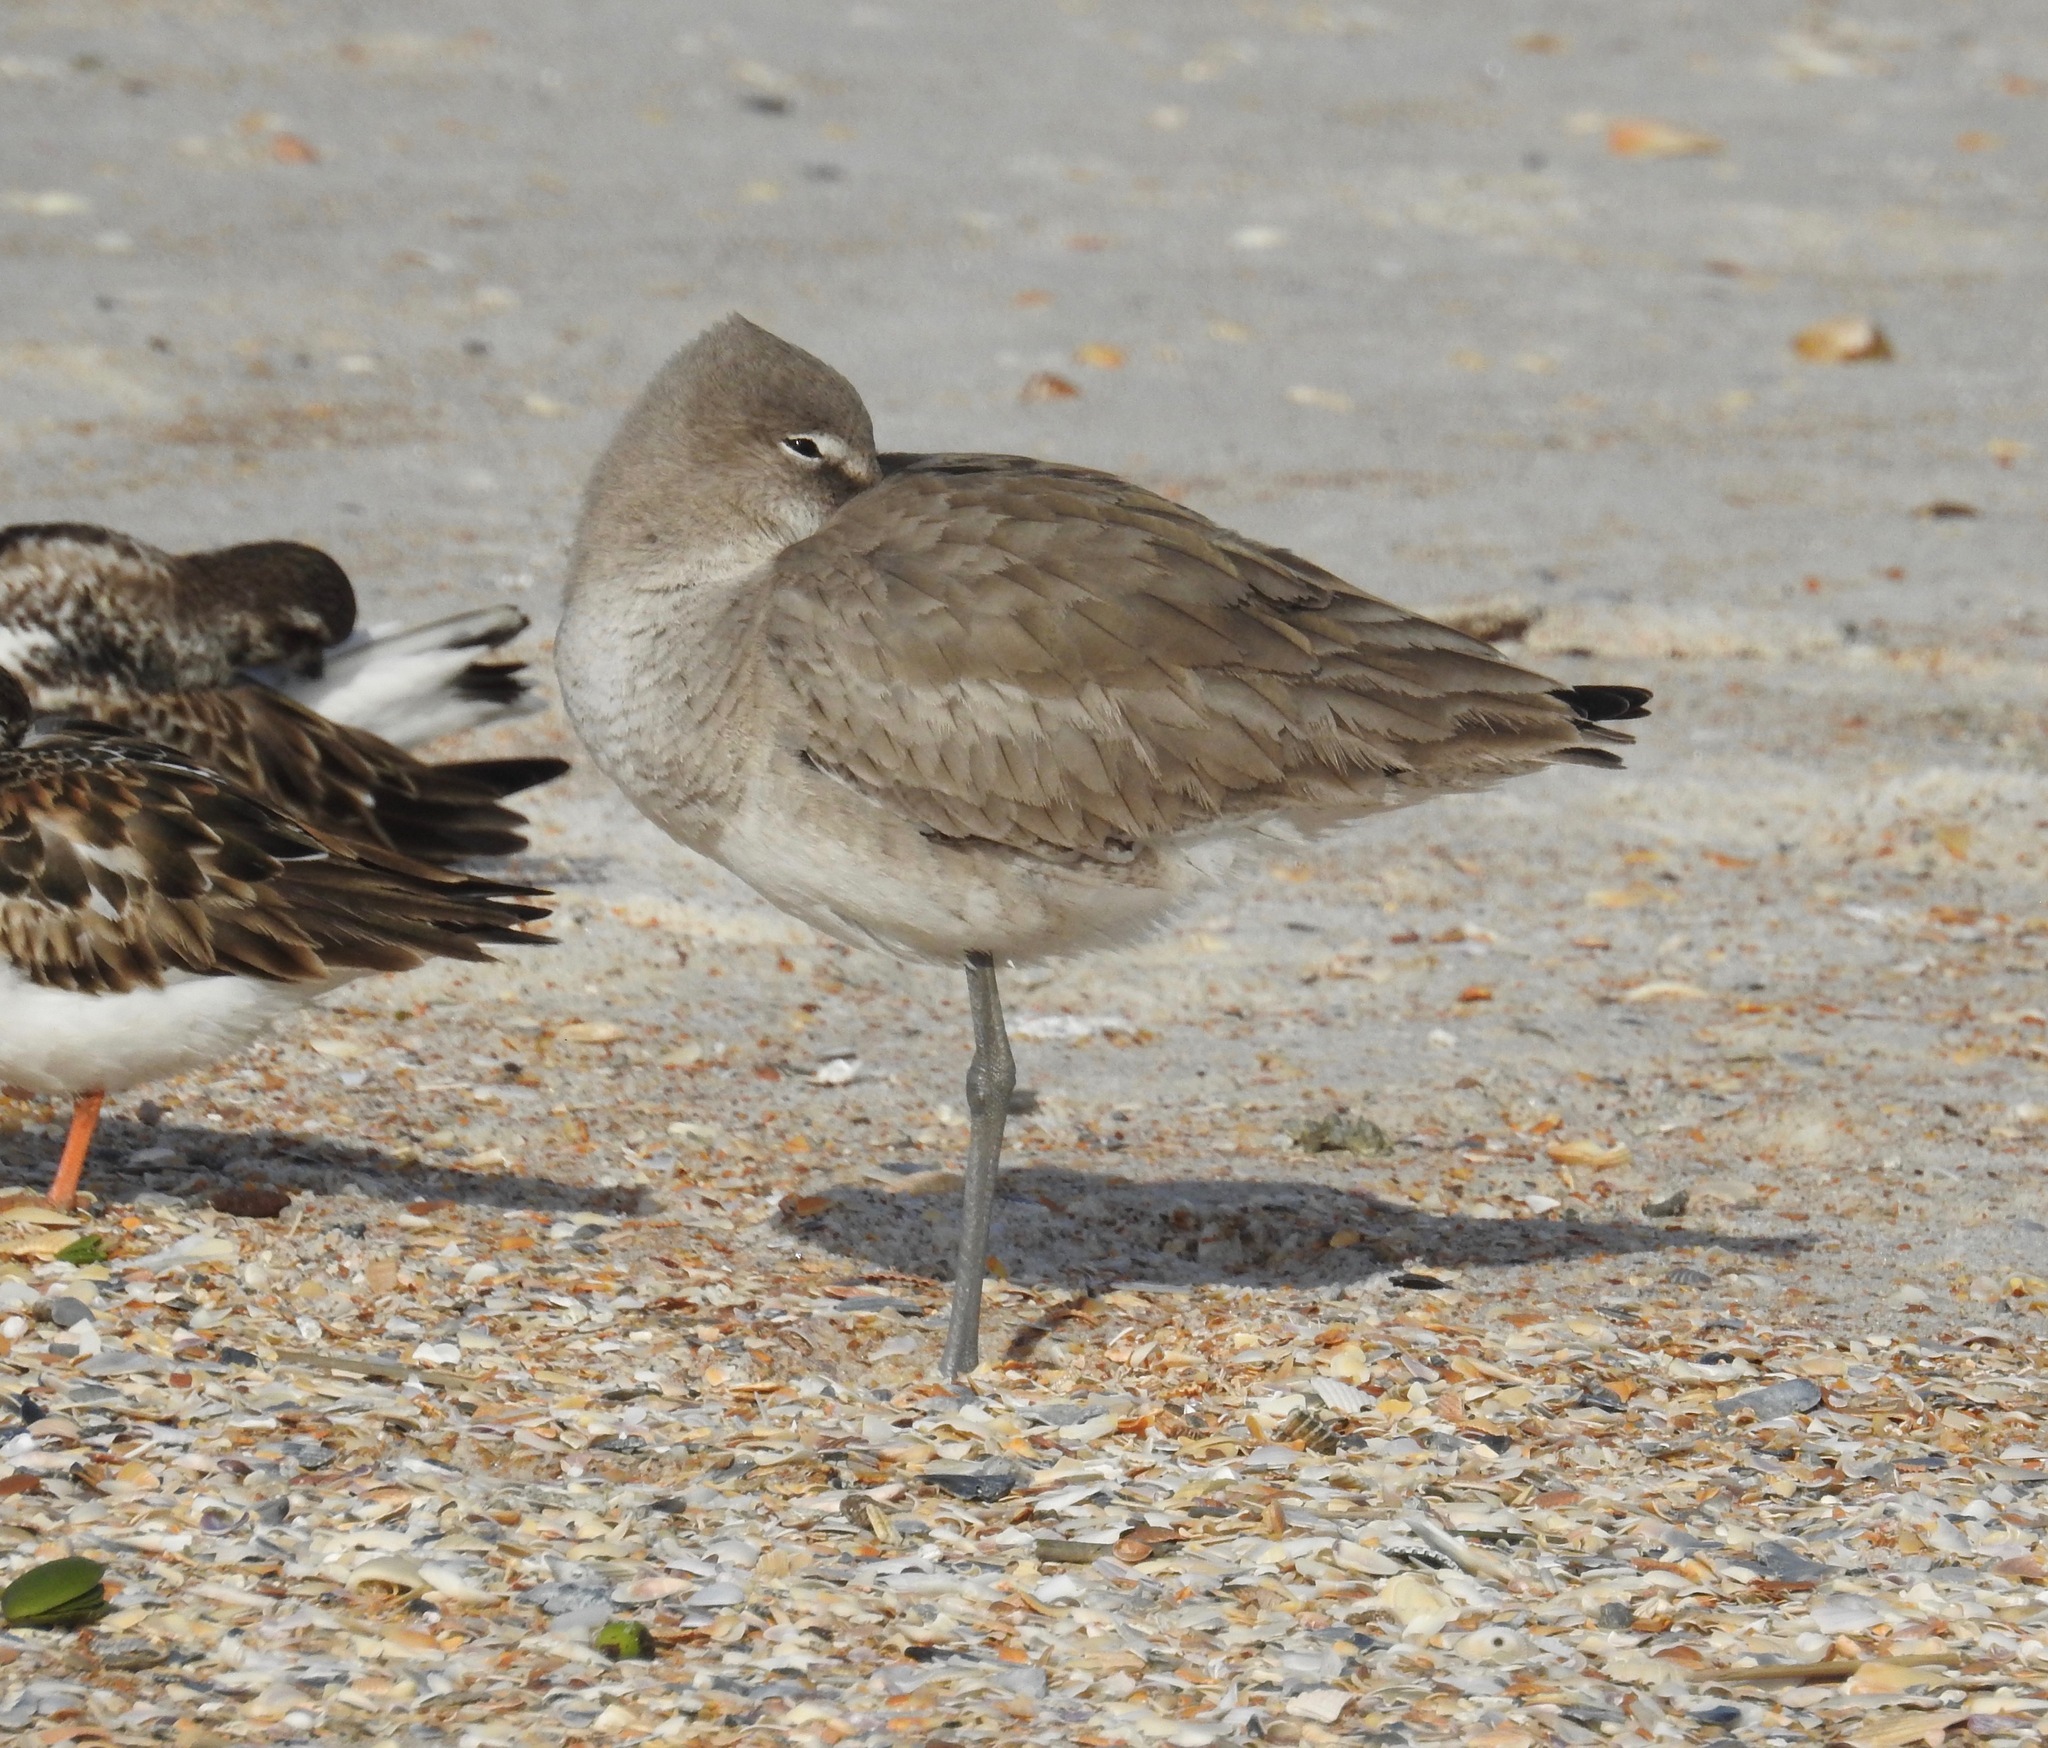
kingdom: Animalia
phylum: Chordata
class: Aves
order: Charadriiformes
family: Scolopacidae
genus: Tringa
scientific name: Tringa semipalmata
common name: Willet
